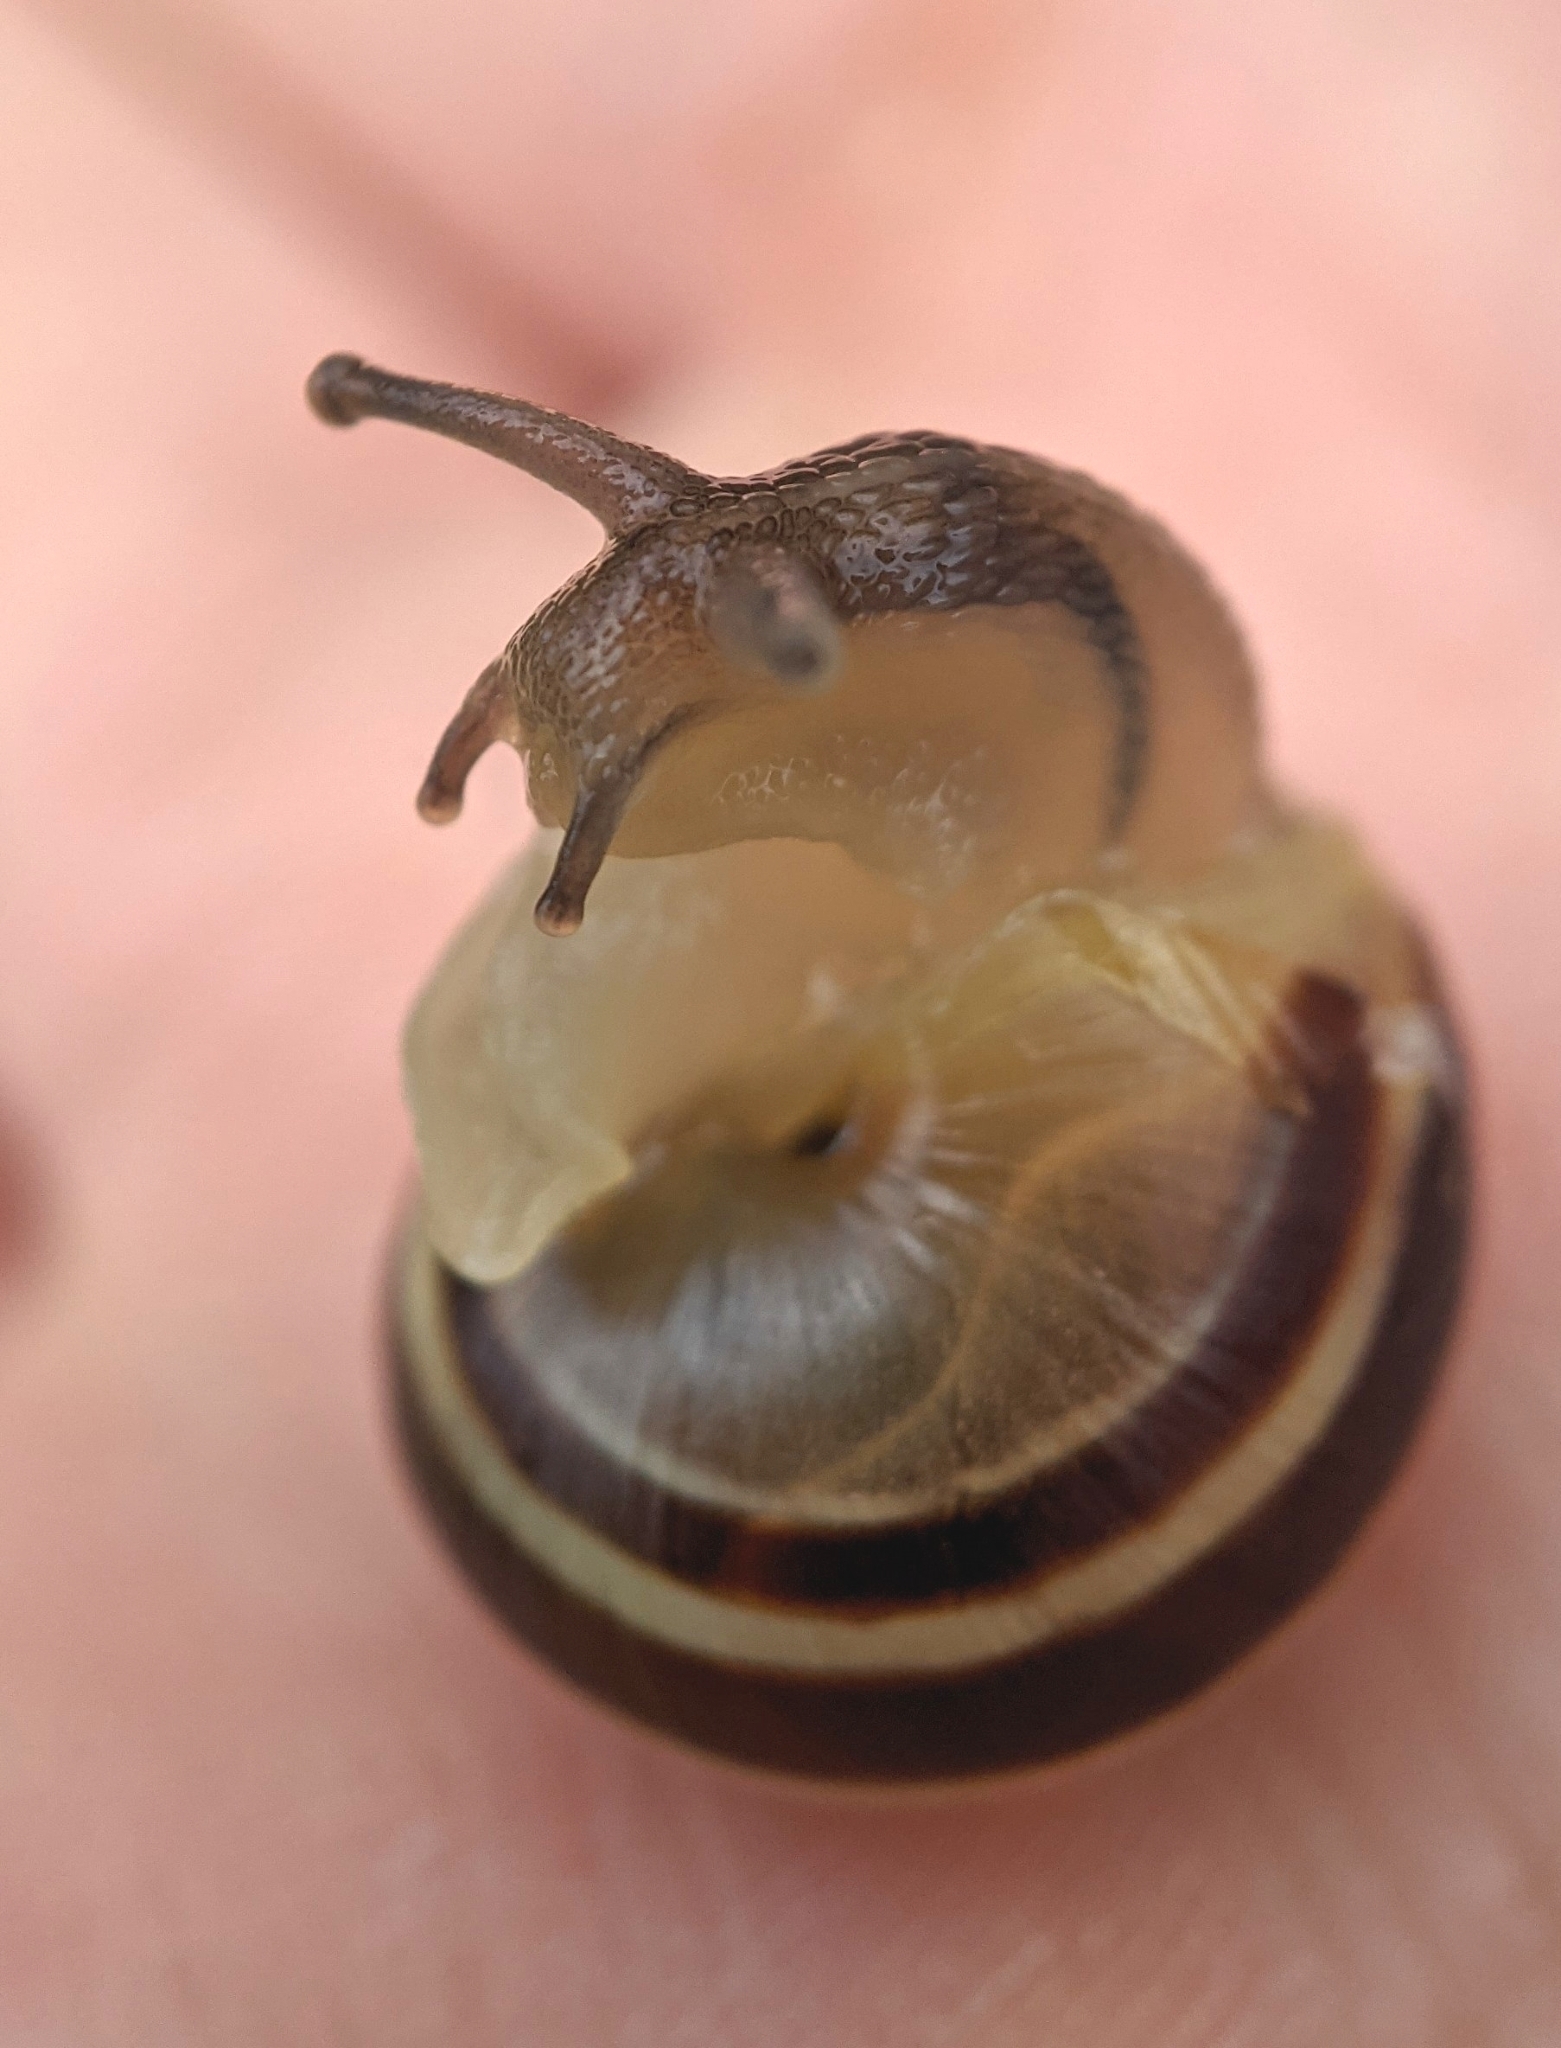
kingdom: Animalia
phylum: Mollusca
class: Gastropoda
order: Stylommatophora
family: Helicidae
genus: Cepaea
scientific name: Cepaea hortensis
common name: White-lip gardensnail
